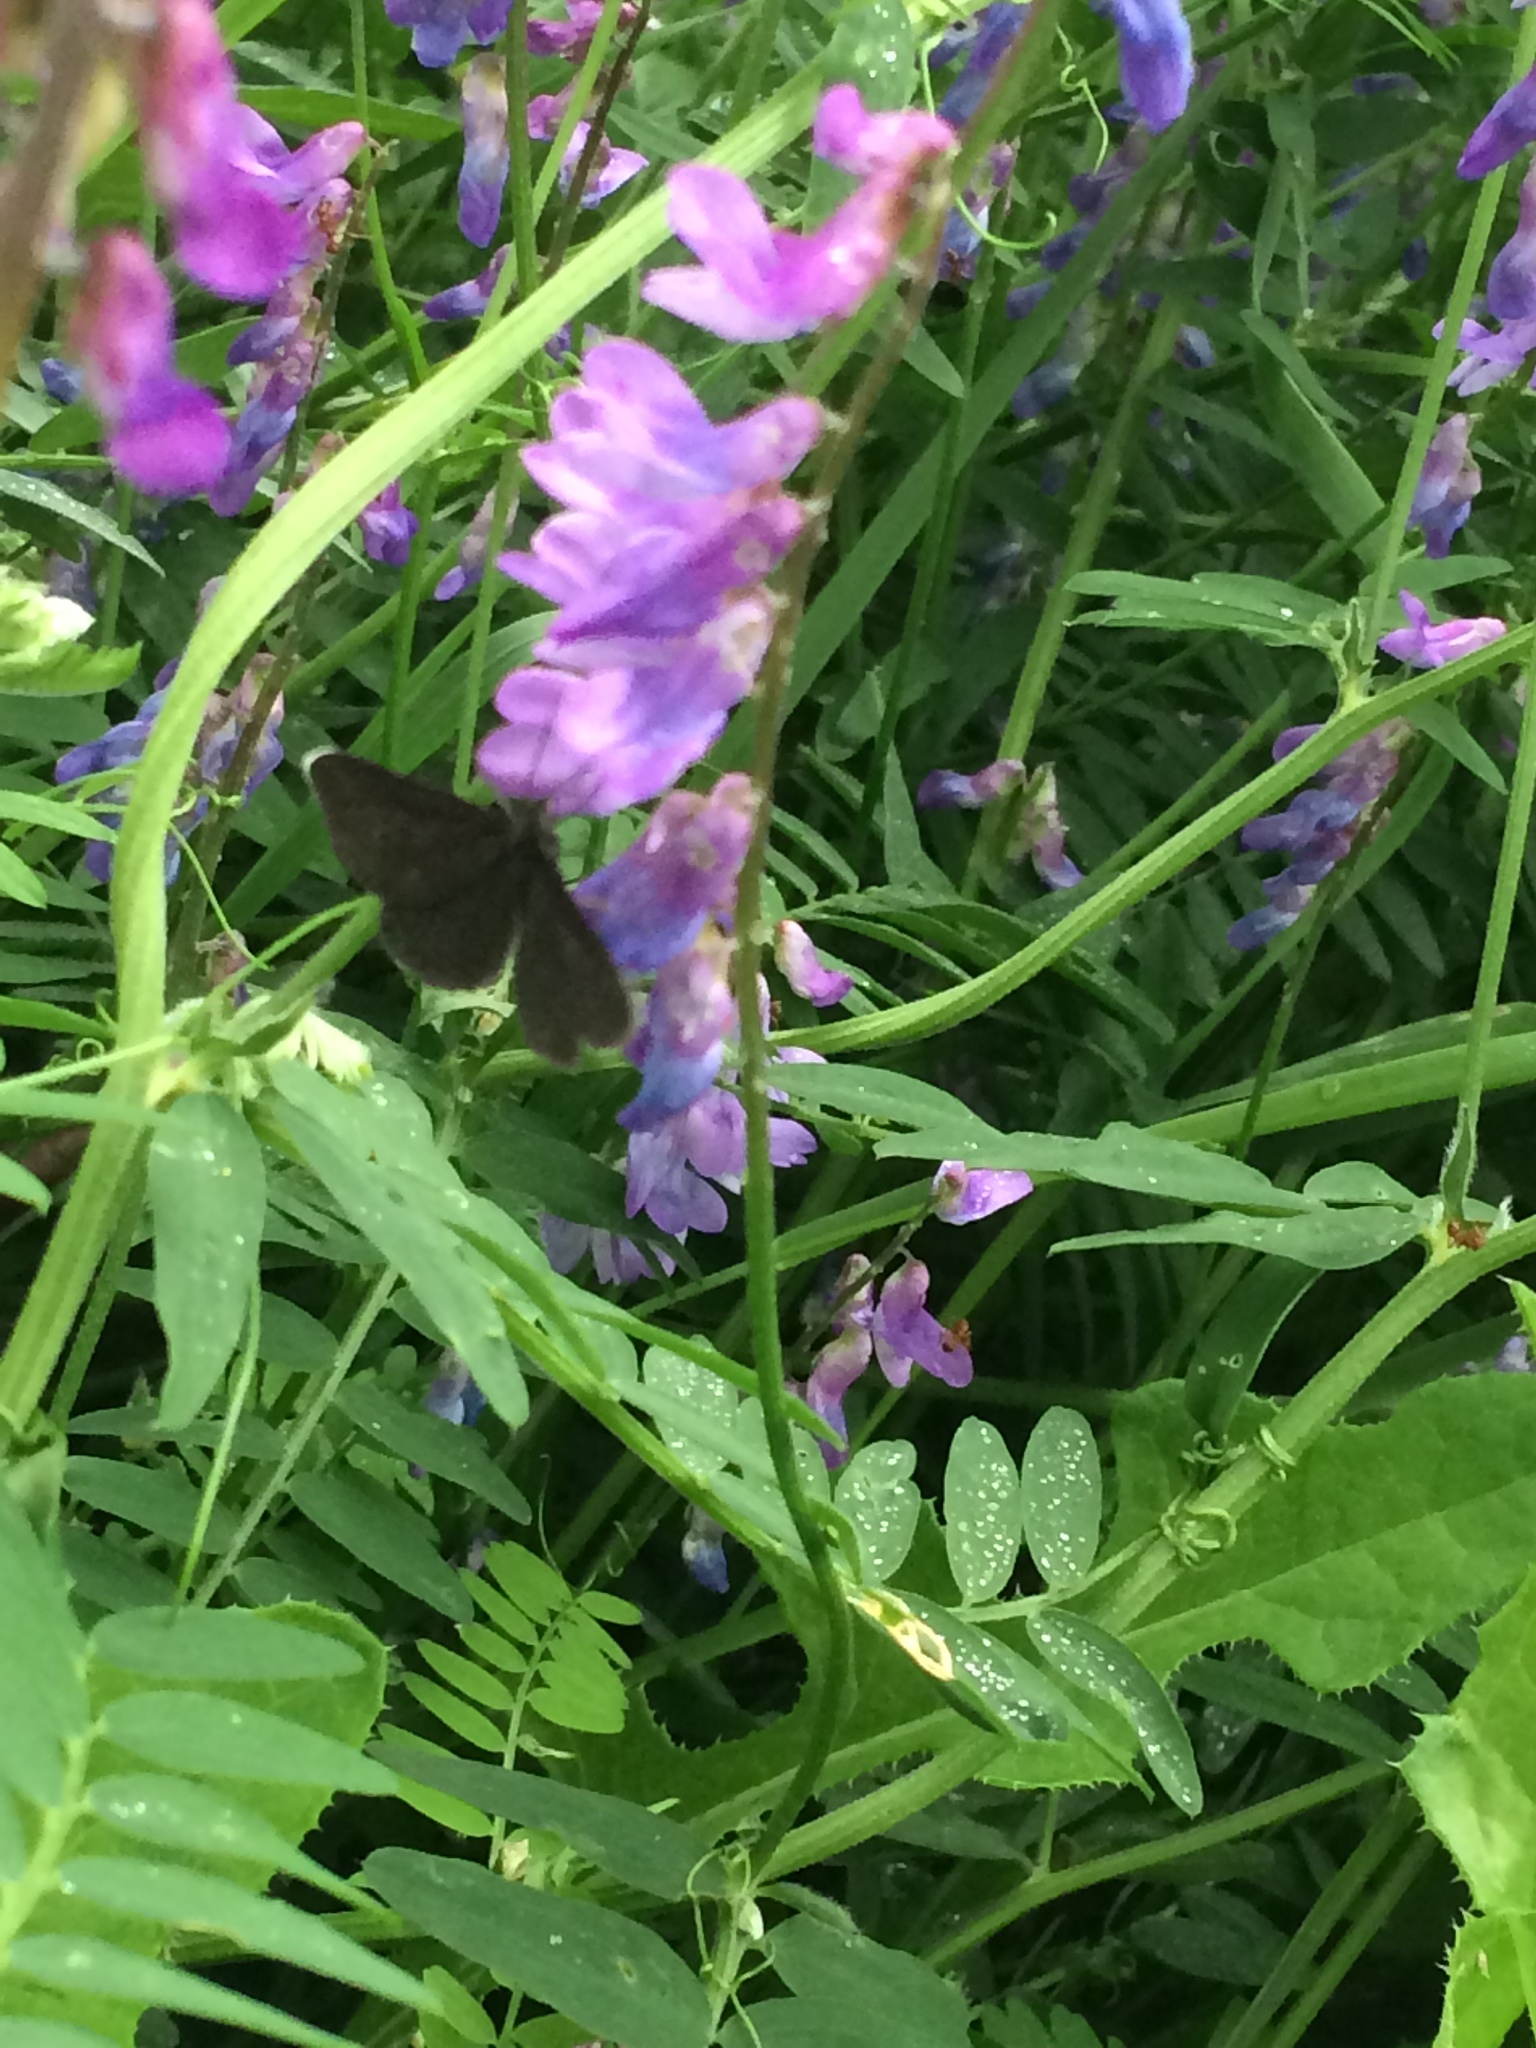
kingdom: Animalia
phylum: Arthropoda
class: Insecta
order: Lepidoptera
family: Geometridae
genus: Odezia
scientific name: Odezia atrata
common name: Chimney sweeper
